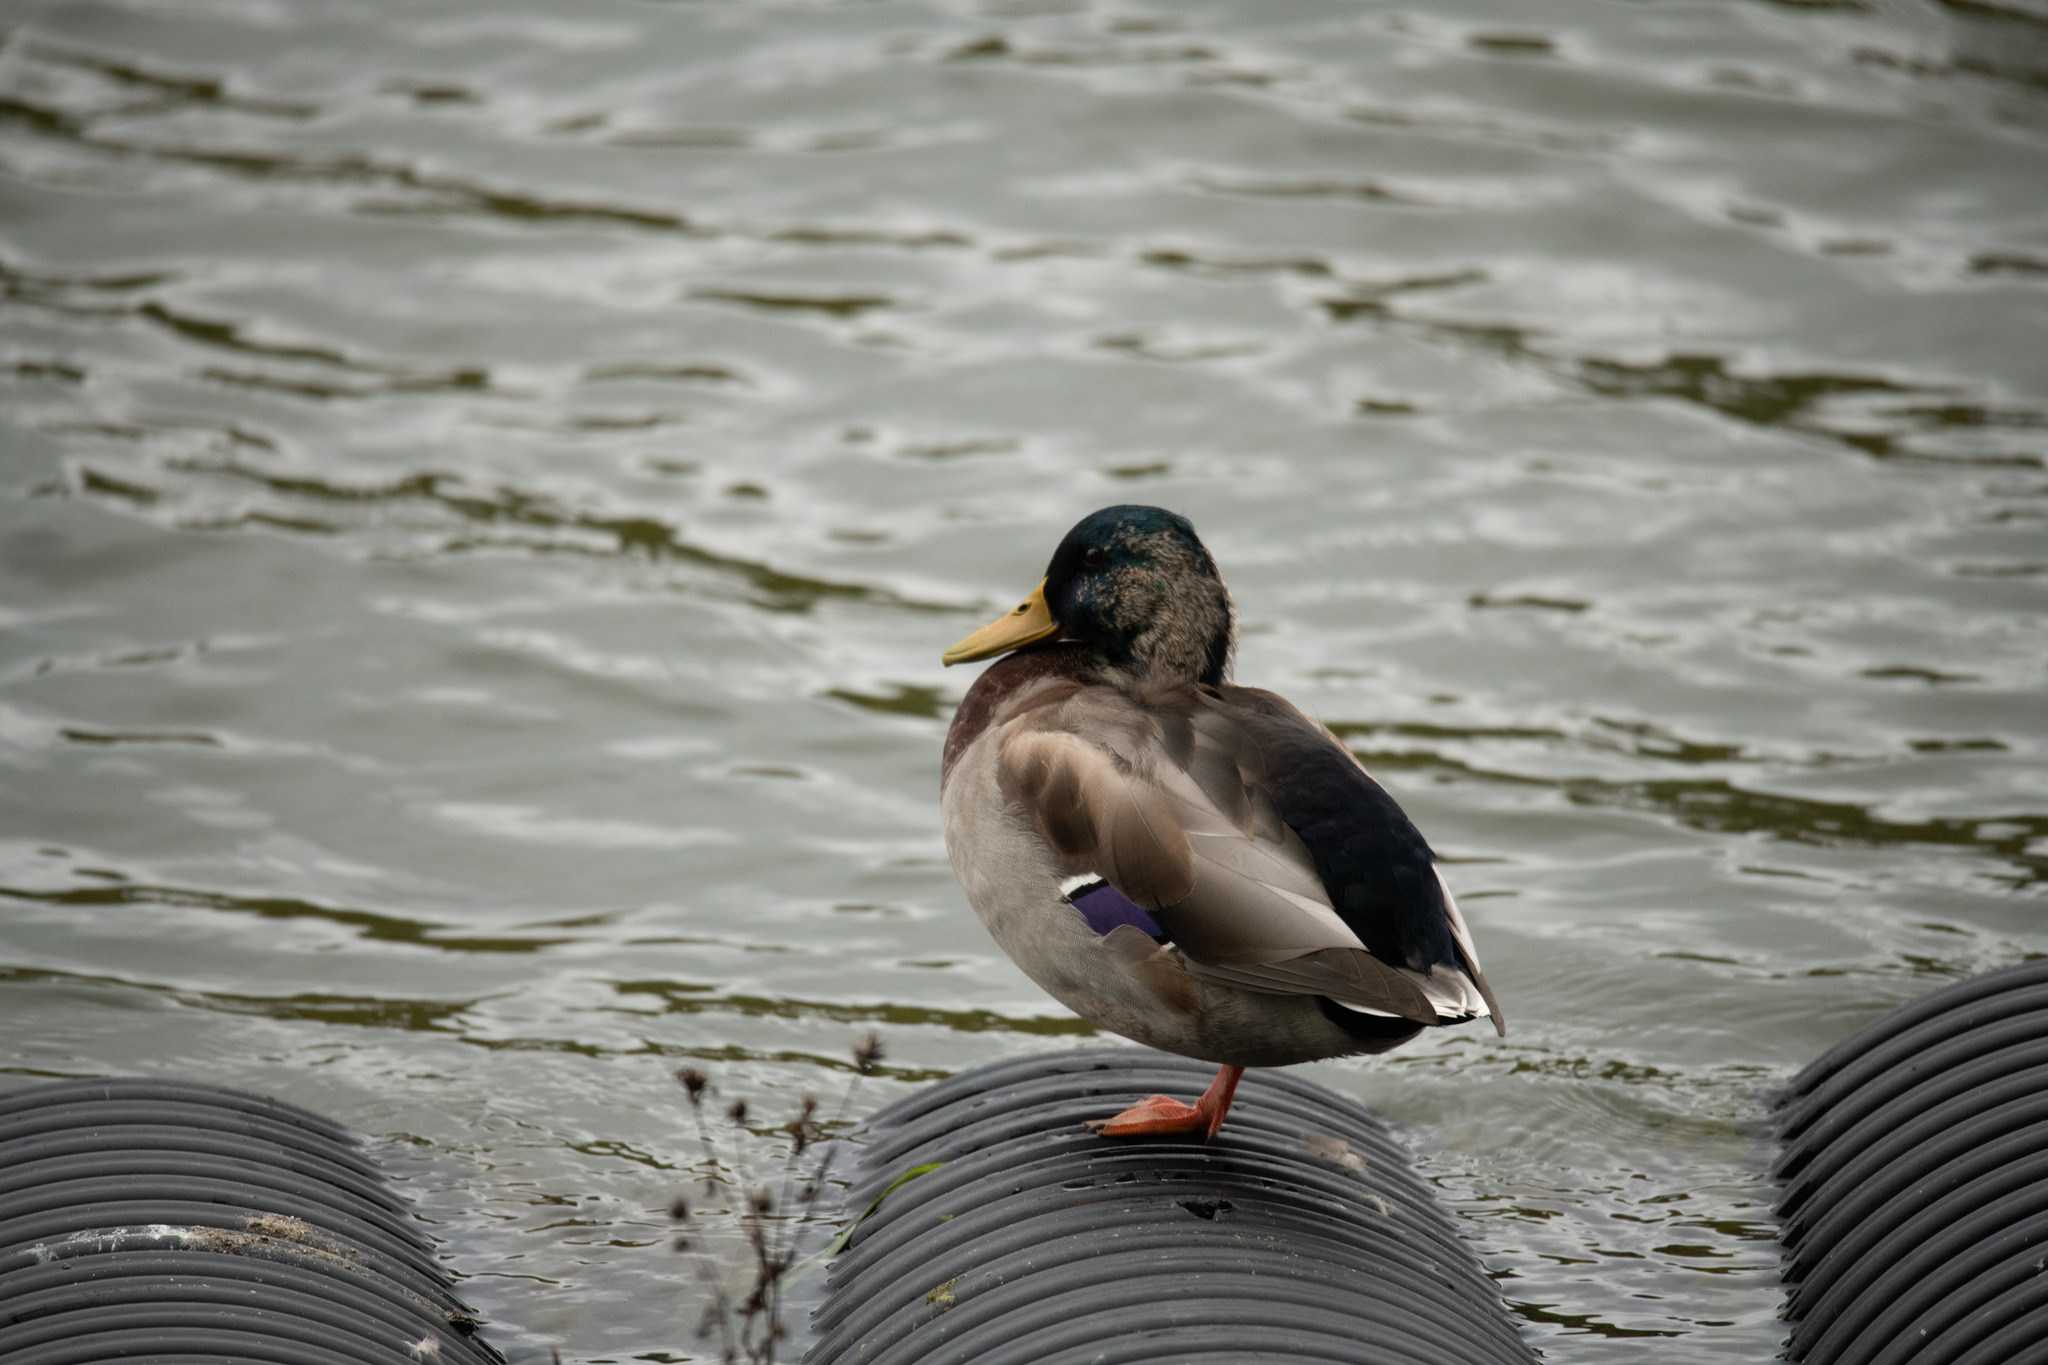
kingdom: Animalia
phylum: Chordata
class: Aves
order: Anseriformes
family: Anatidae
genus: Anas
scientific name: Anas platyrhynchos
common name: Mallard
